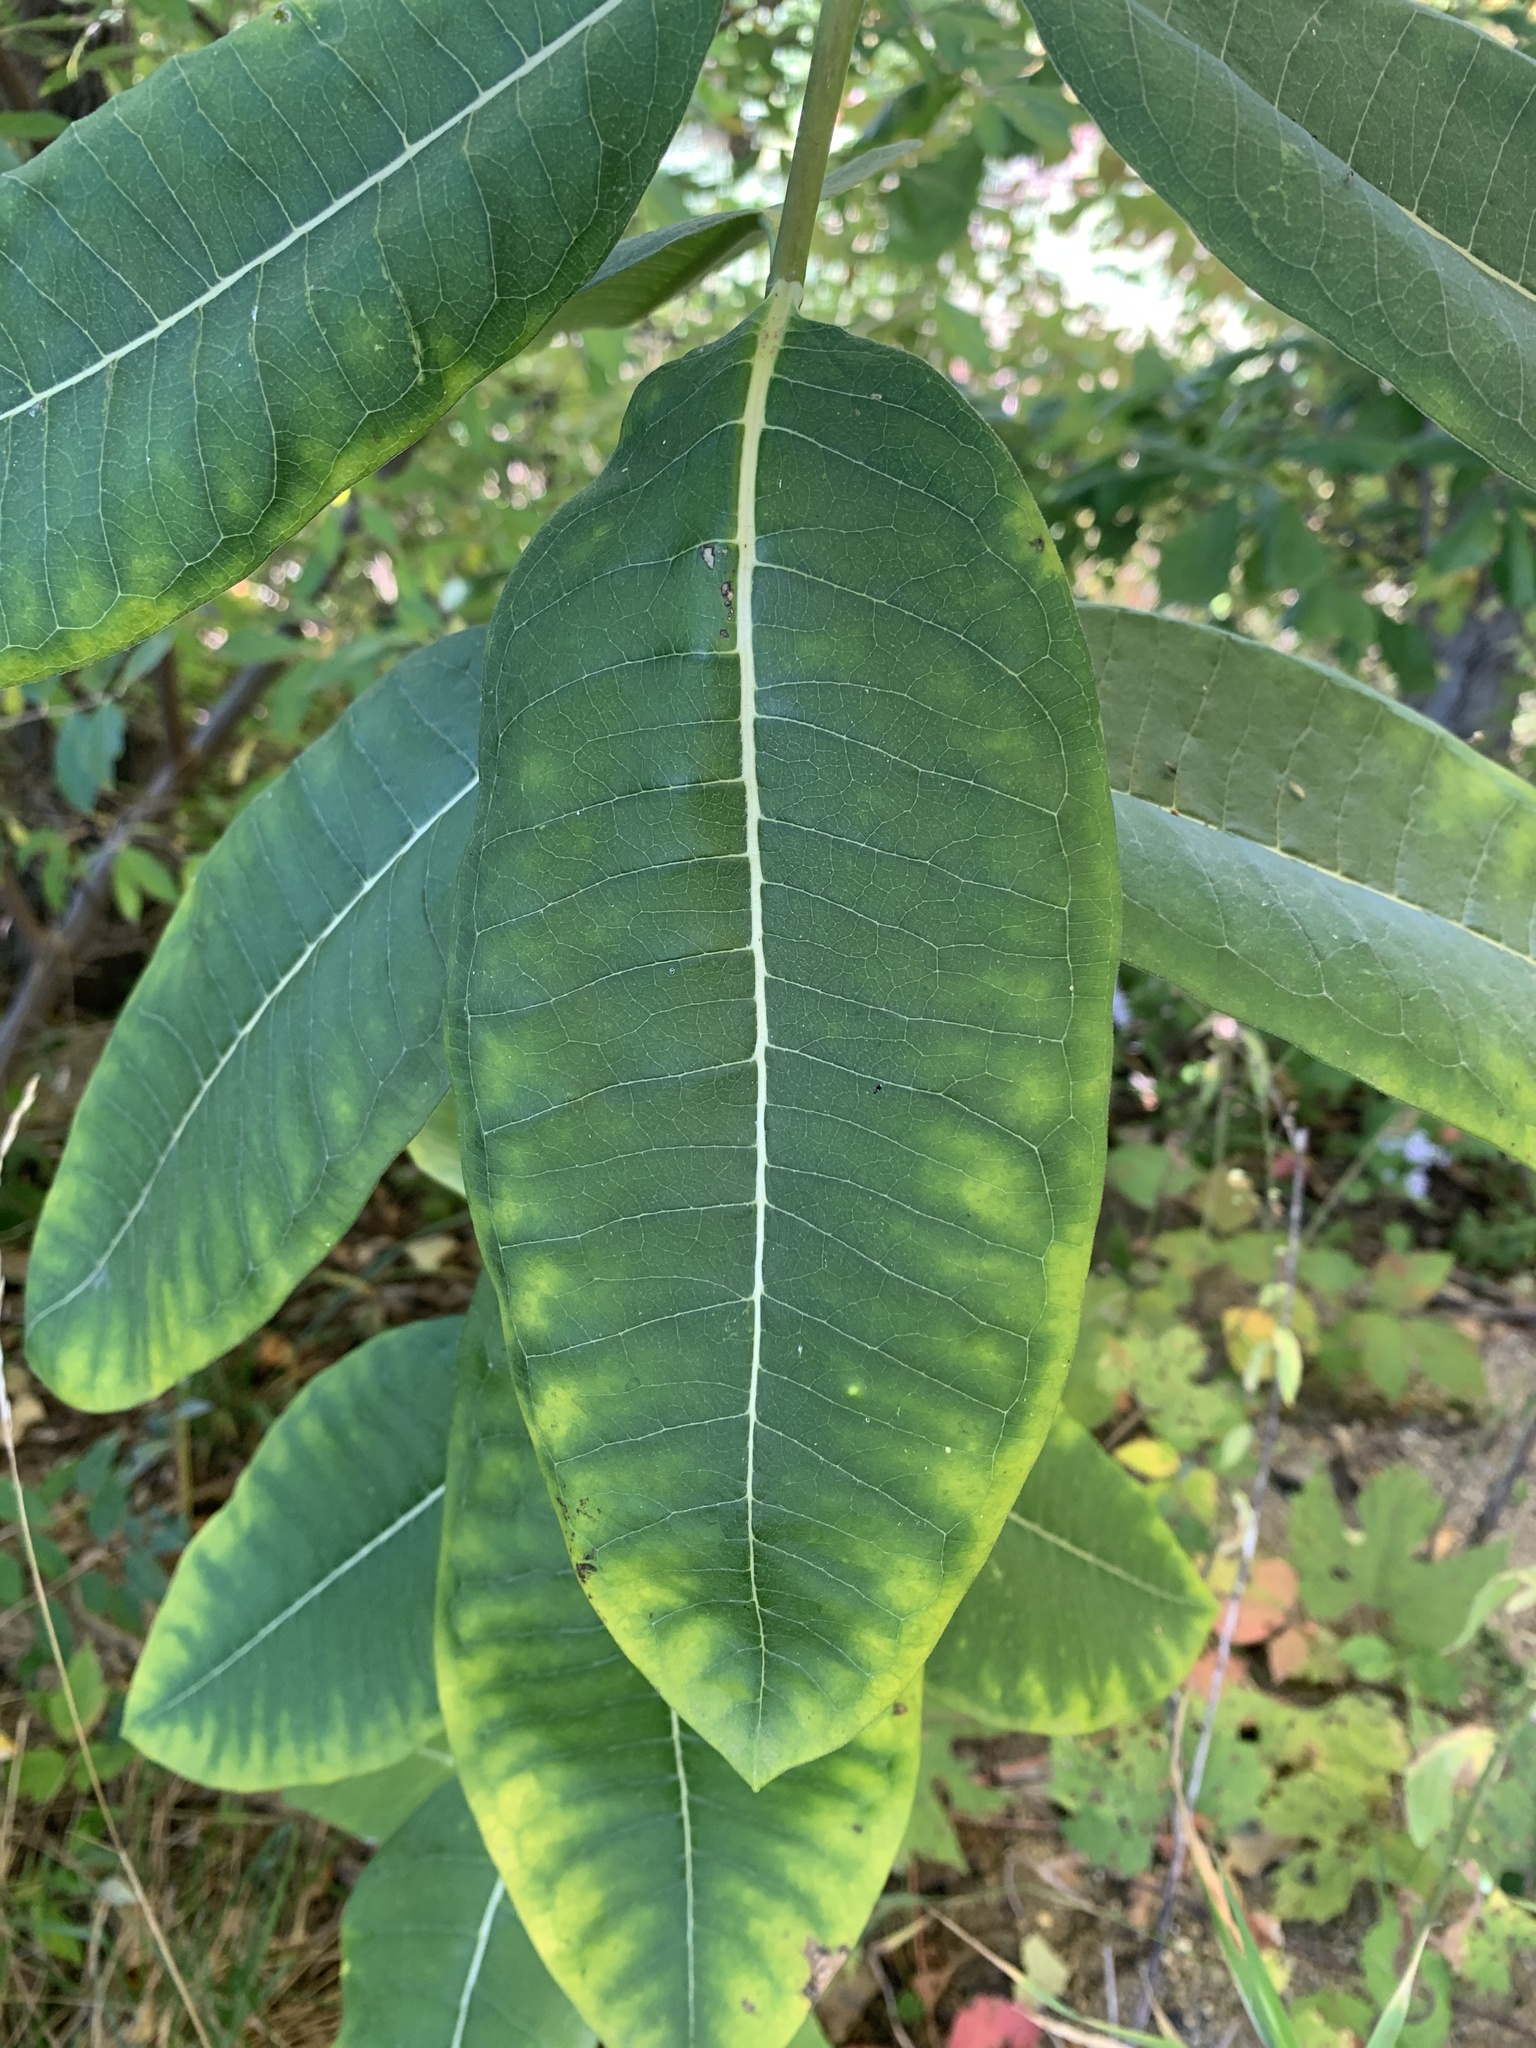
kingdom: Plantae
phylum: Tracheophyta
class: Magnoliopsida
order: Gentianales
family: Apocynaceae
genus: Asclepias
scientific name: Asclepias syriaca
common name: Common milkweed
